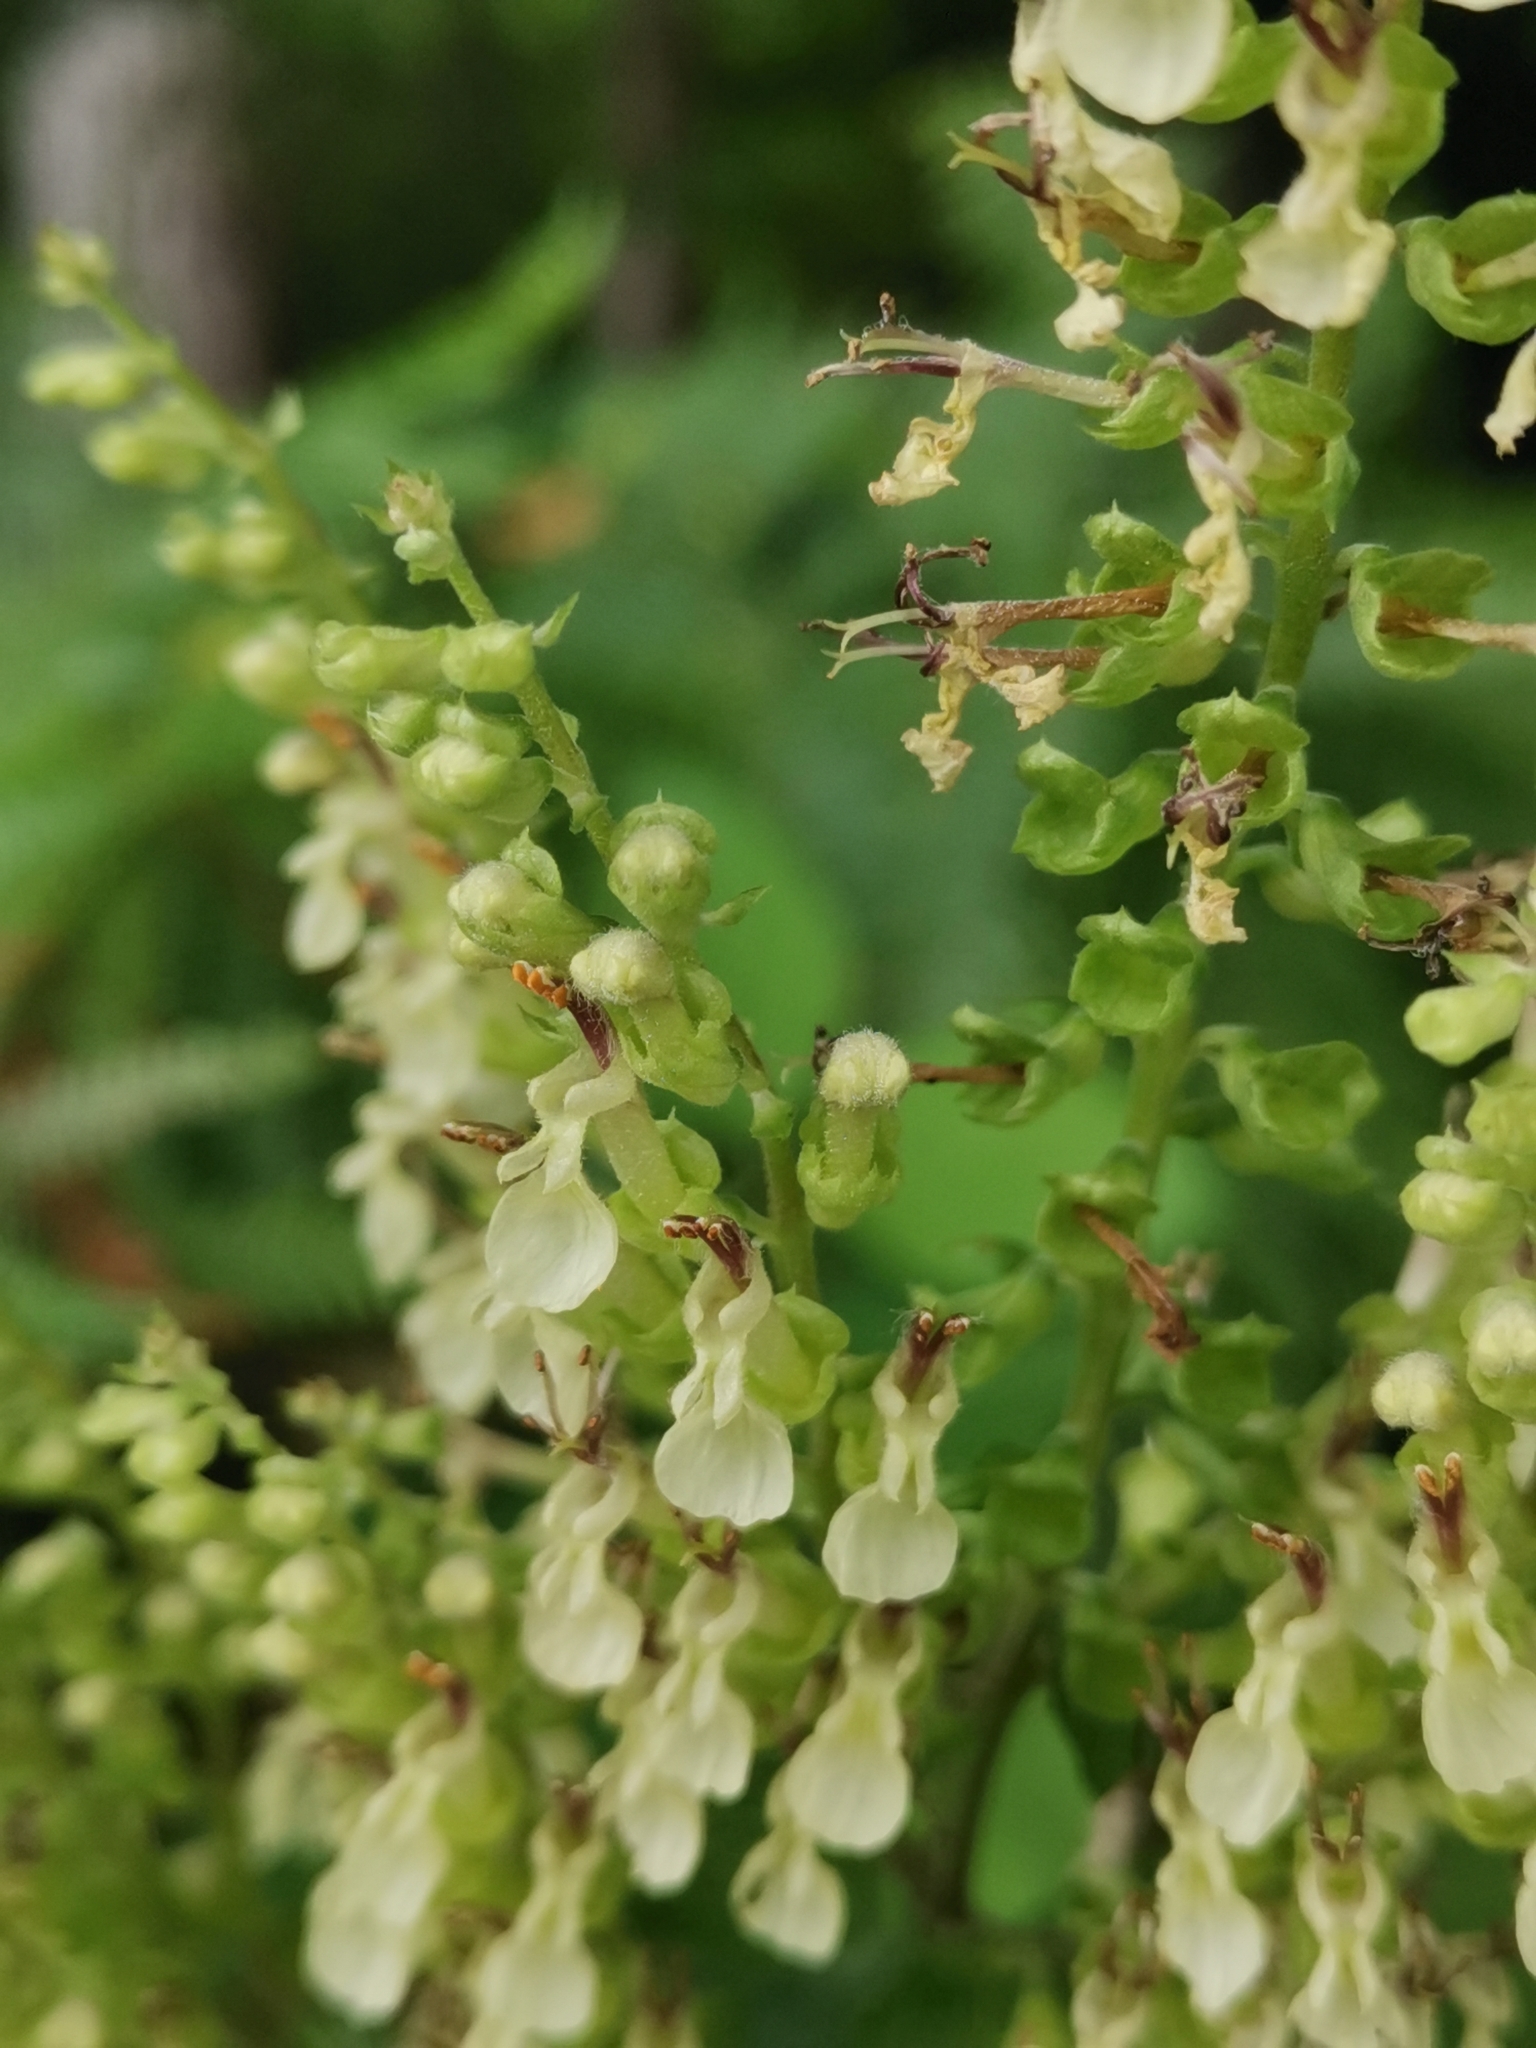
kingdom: Plantae
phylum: Tracheophyta
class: Magnoliopsida
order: Lamiales
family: Lamiaceae
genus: Teucrium
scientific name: Teucrium scorodonia
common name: Woodland germander
